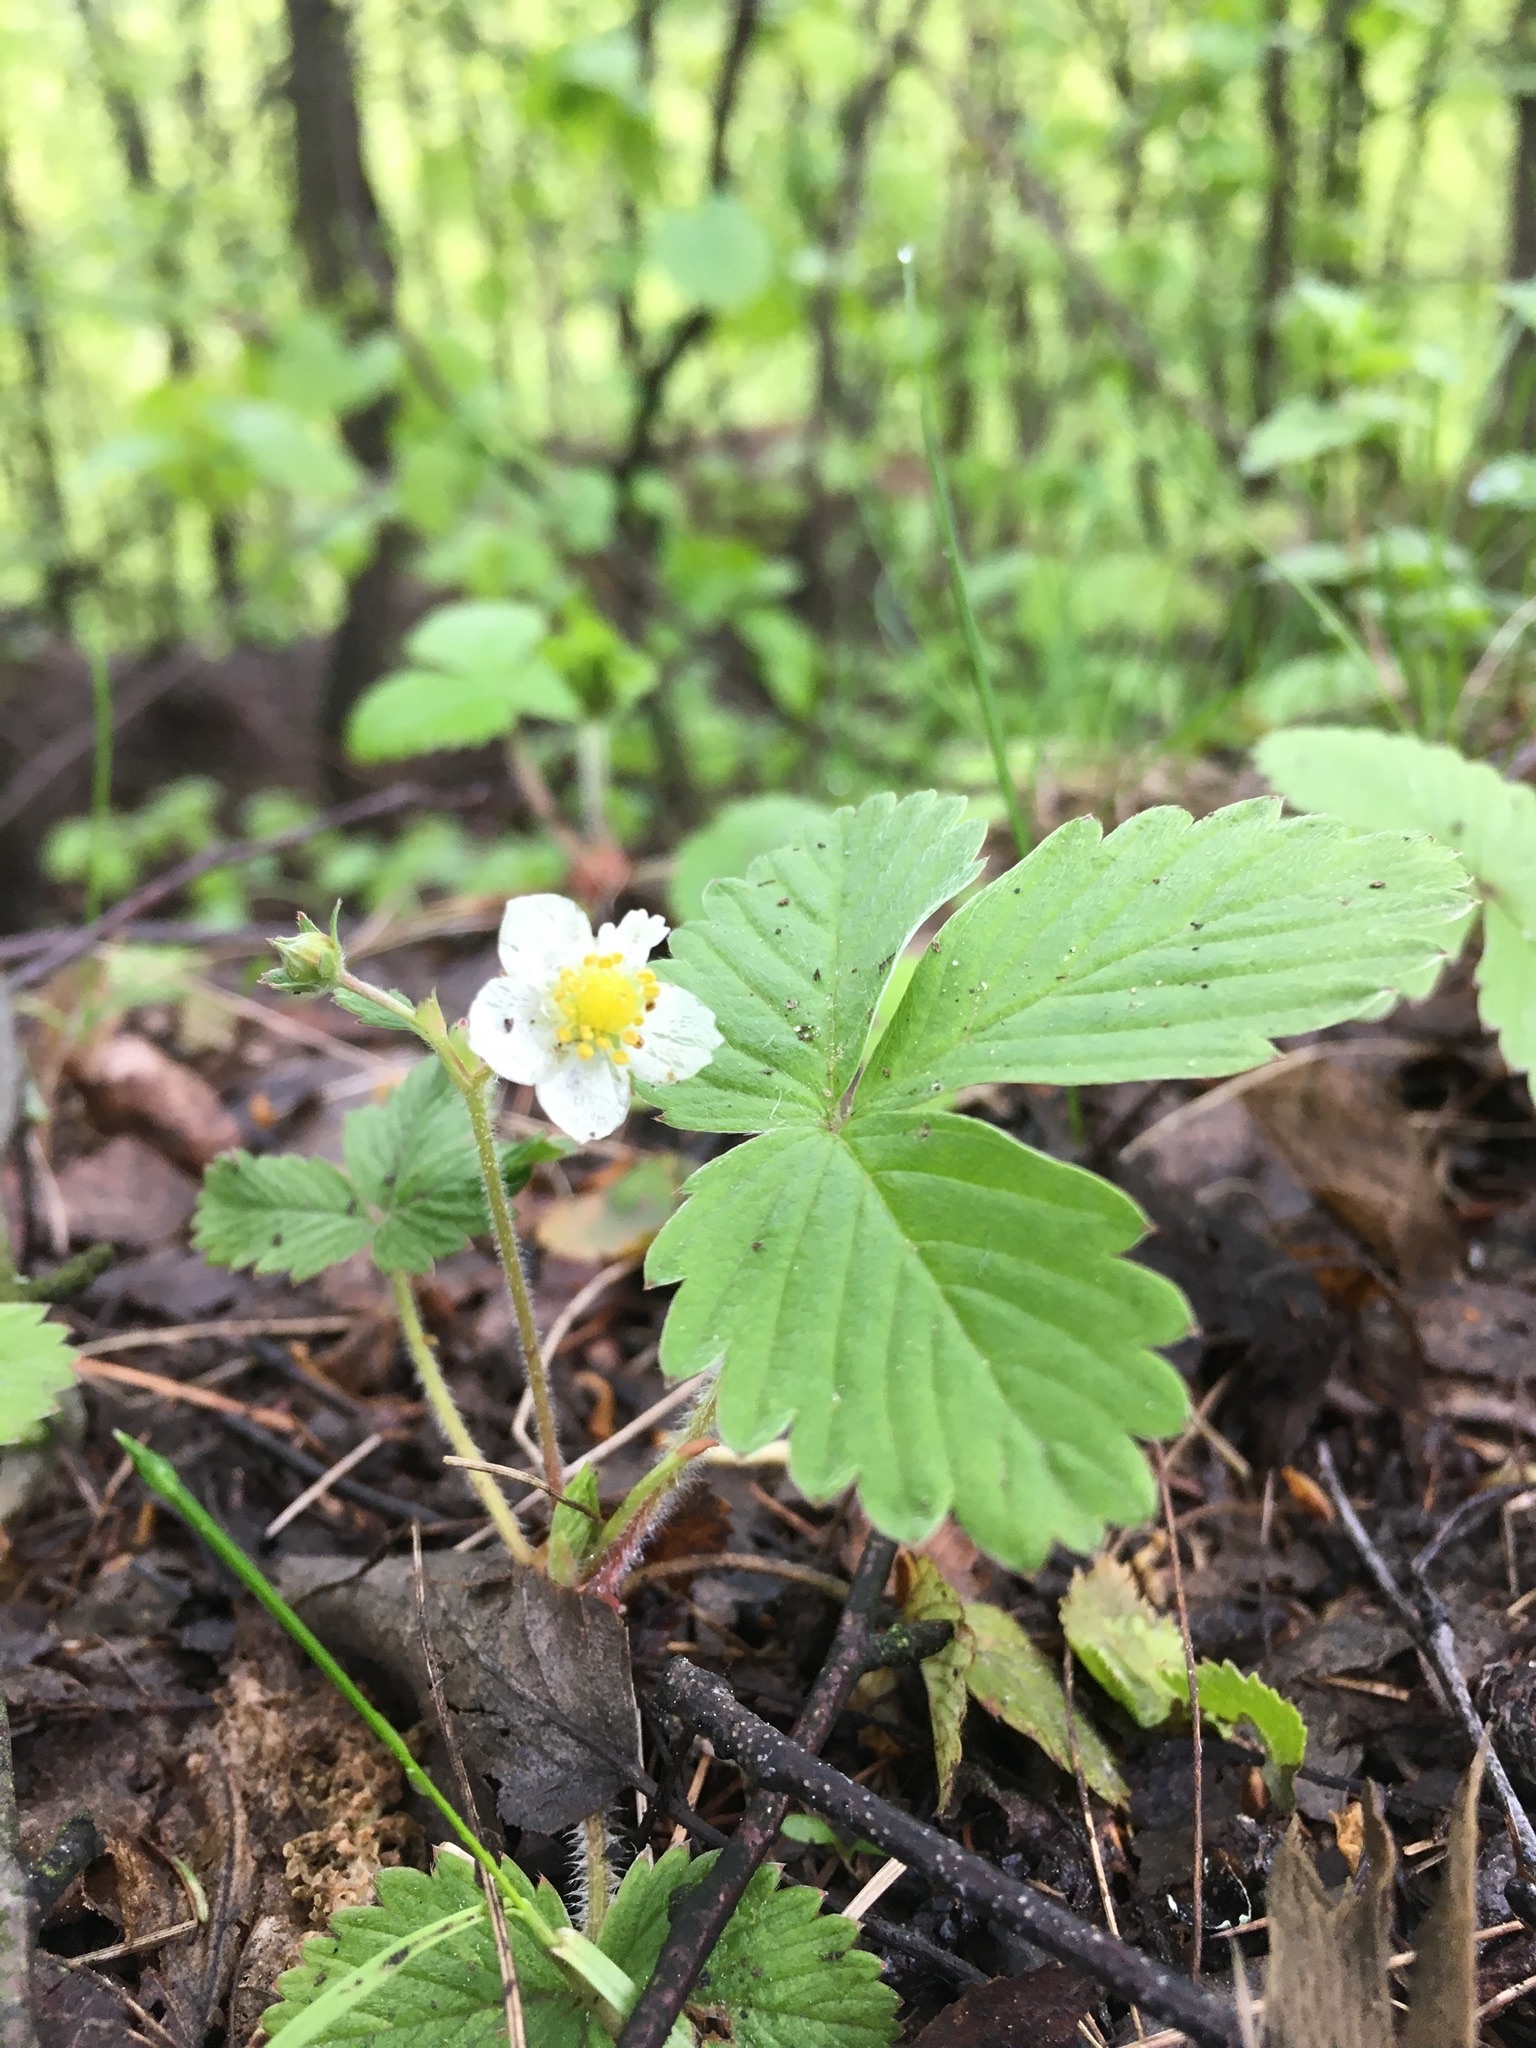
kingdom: Plantae
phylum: Tracheophyta
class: Magnoliopsida
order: Rosales
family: Rosaceae
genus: Fragaria
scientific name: Fragaria vesca
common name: Wild strawberry
